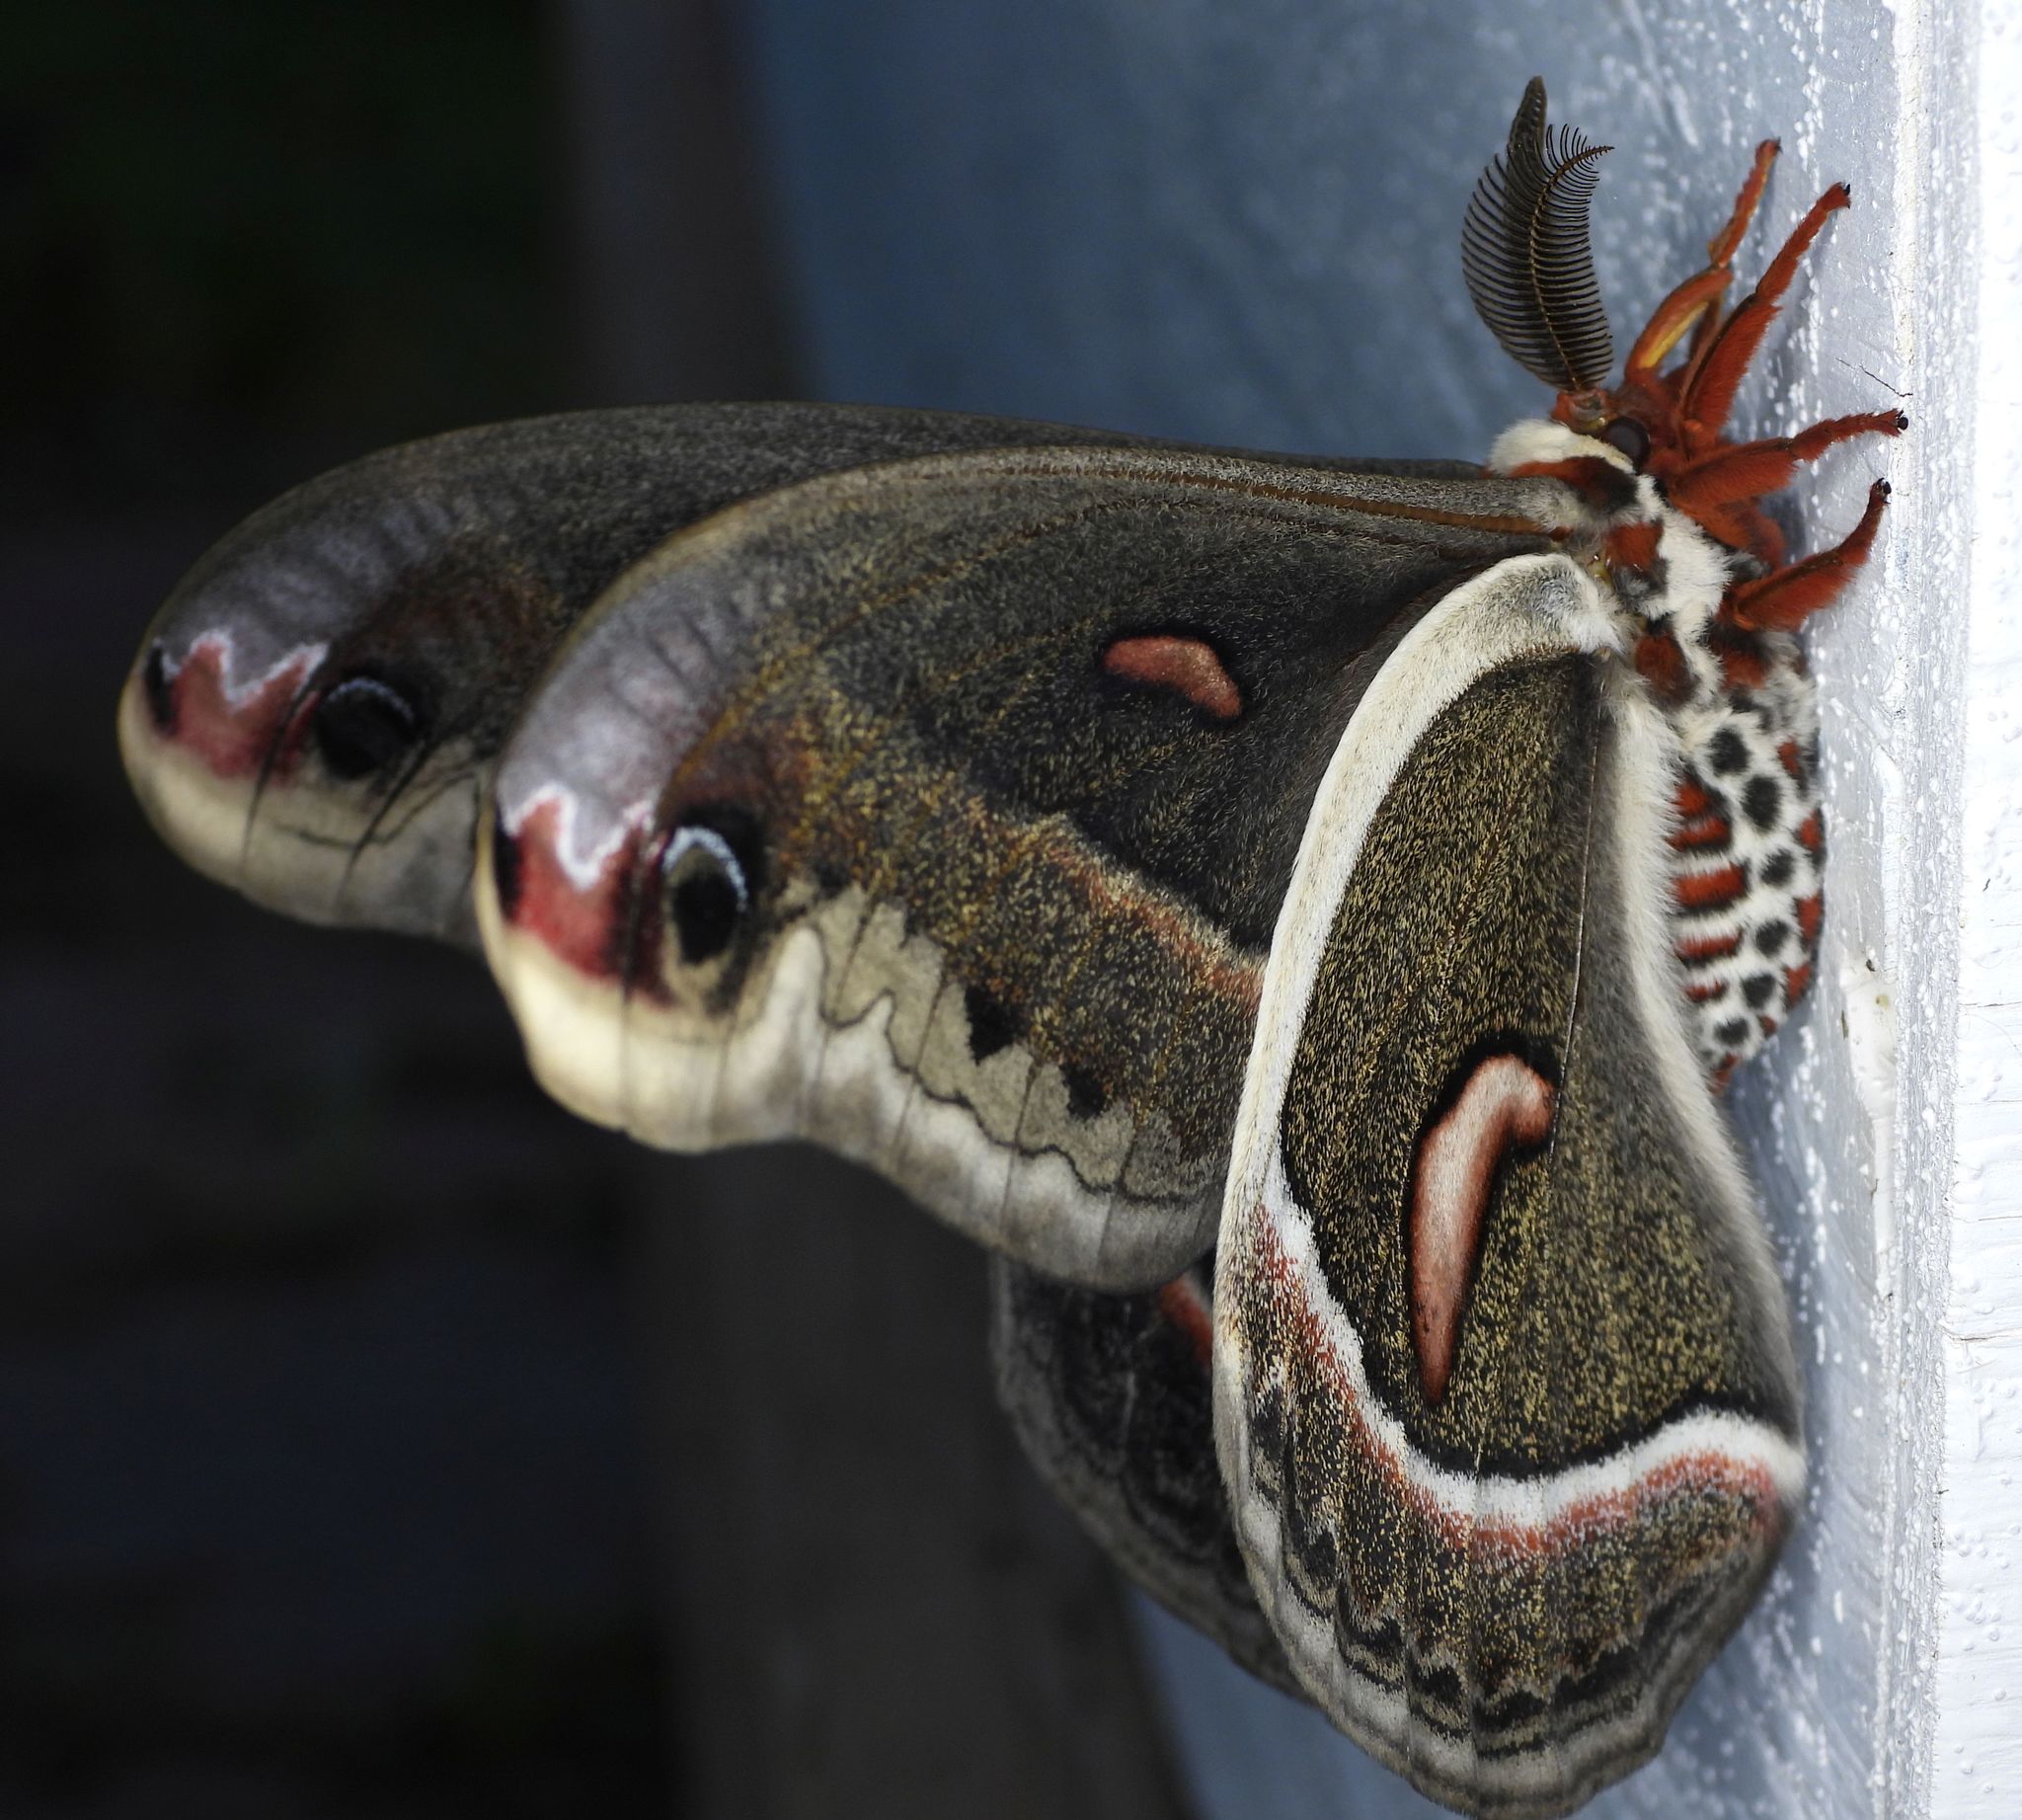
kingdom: Animalia
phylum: Arthropoda
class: Insecta
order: Lepidoptera
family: Saturniidae
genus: Hyalophora
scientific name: Hyalophora cecropia
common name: Cecropia silkmoth
